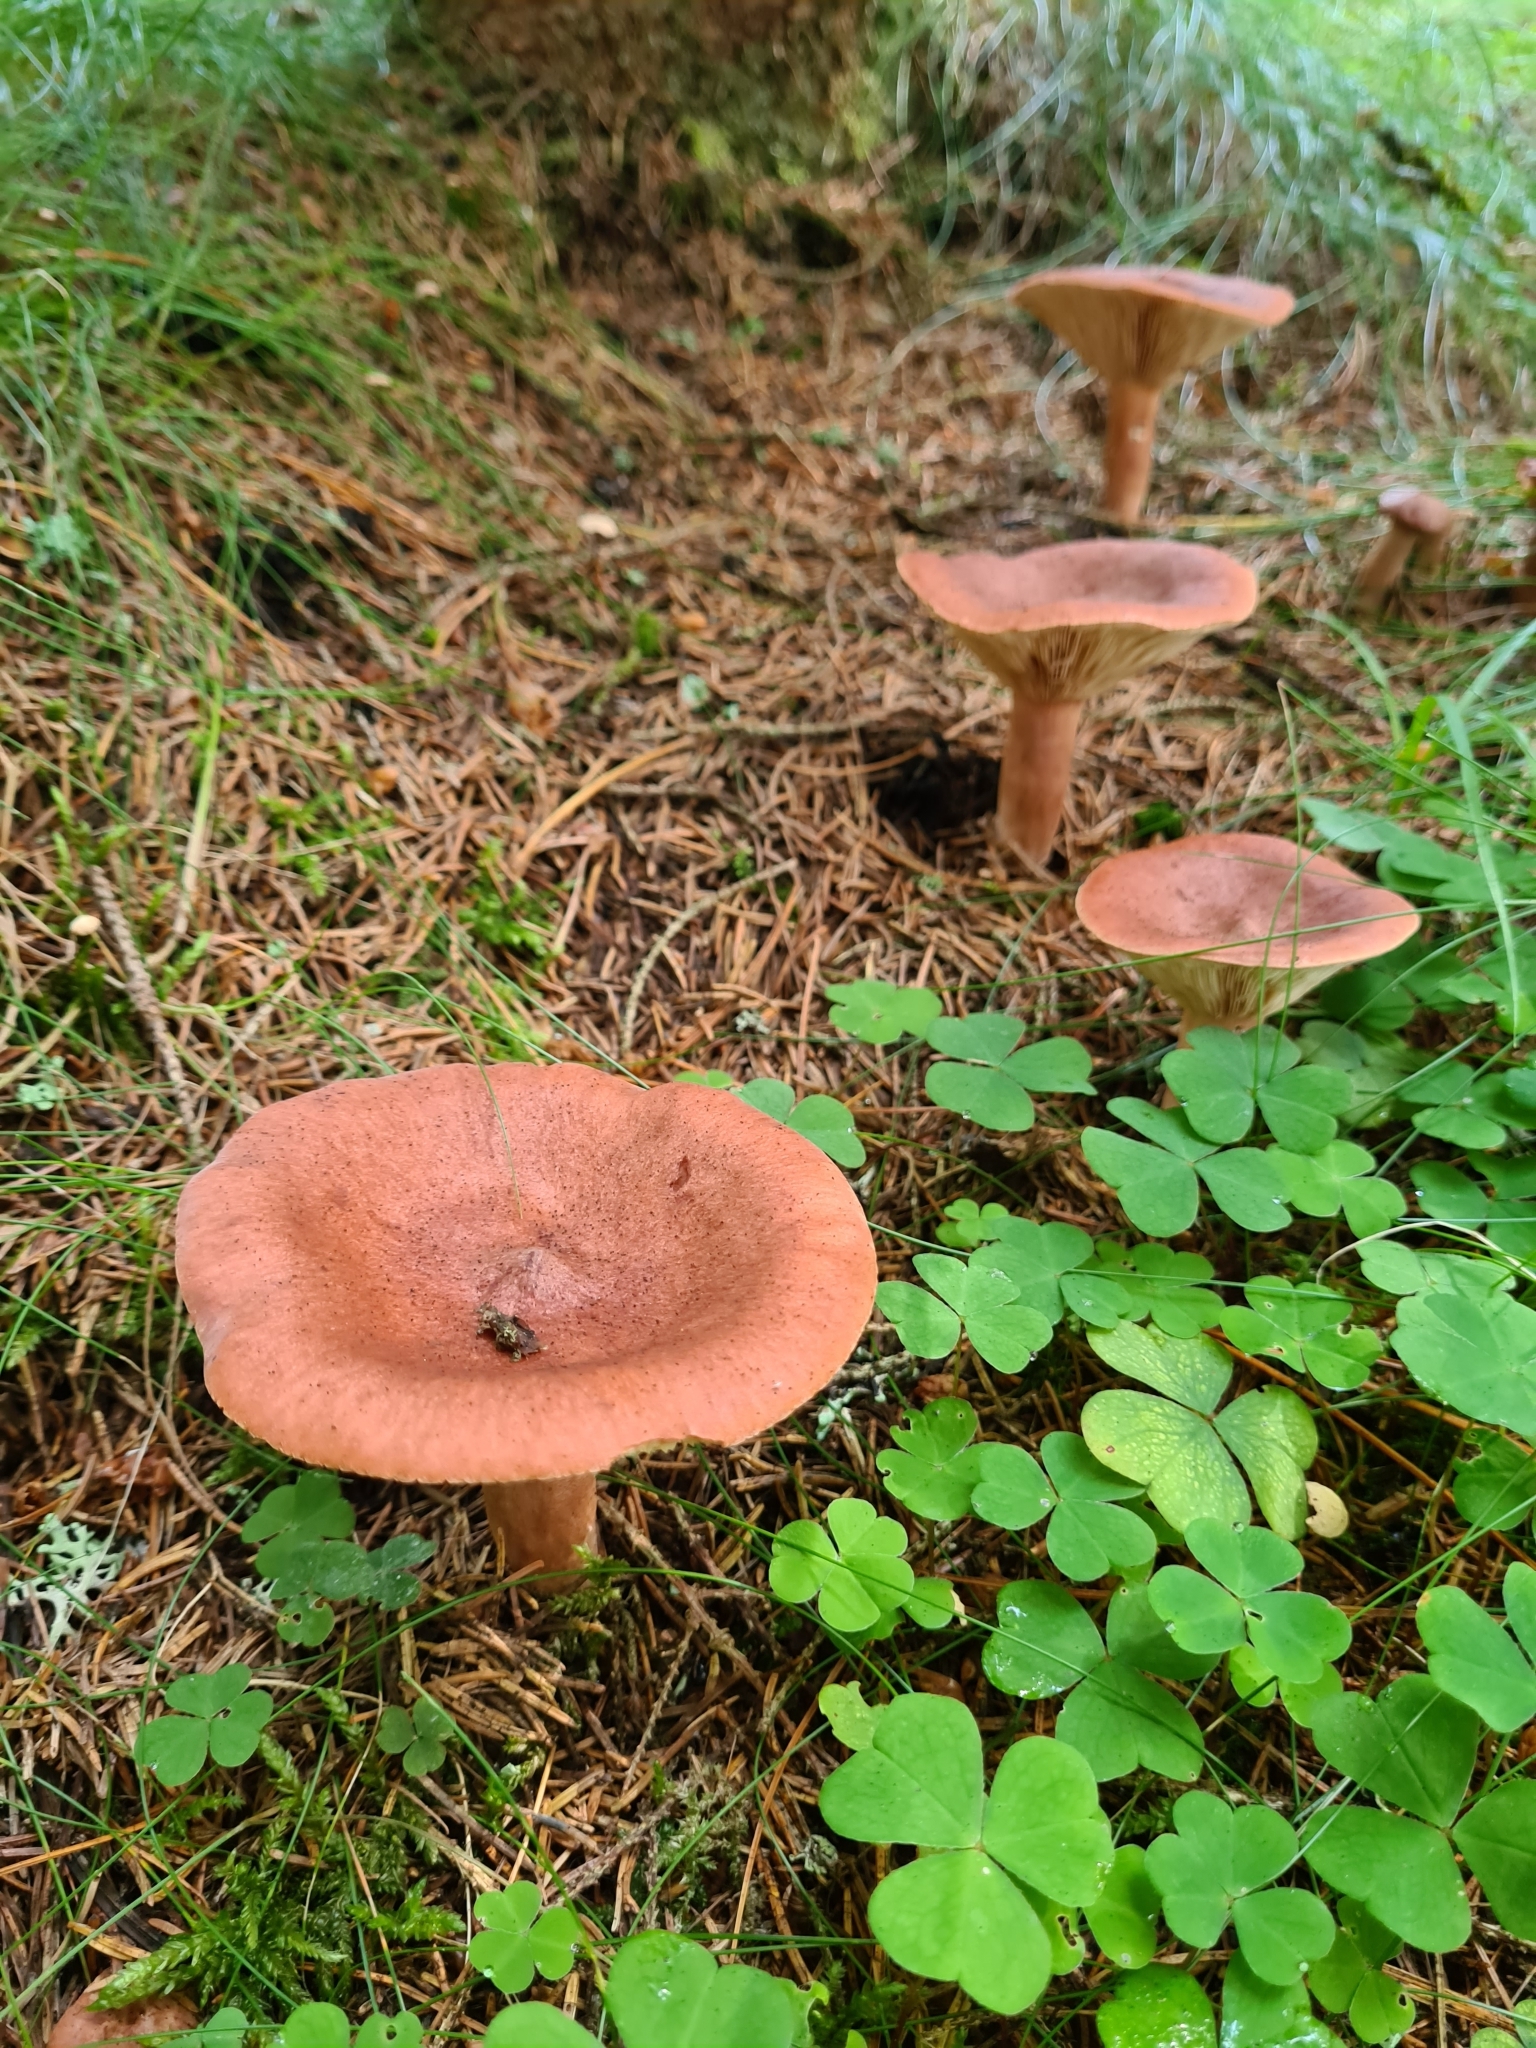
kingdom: Fungi
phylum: Basidiomycota
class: Agaricomycetes
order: Russulales
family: Russulaceae
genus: Lactarius
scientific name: Lactarius rufus
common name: Rufous milk-cap
